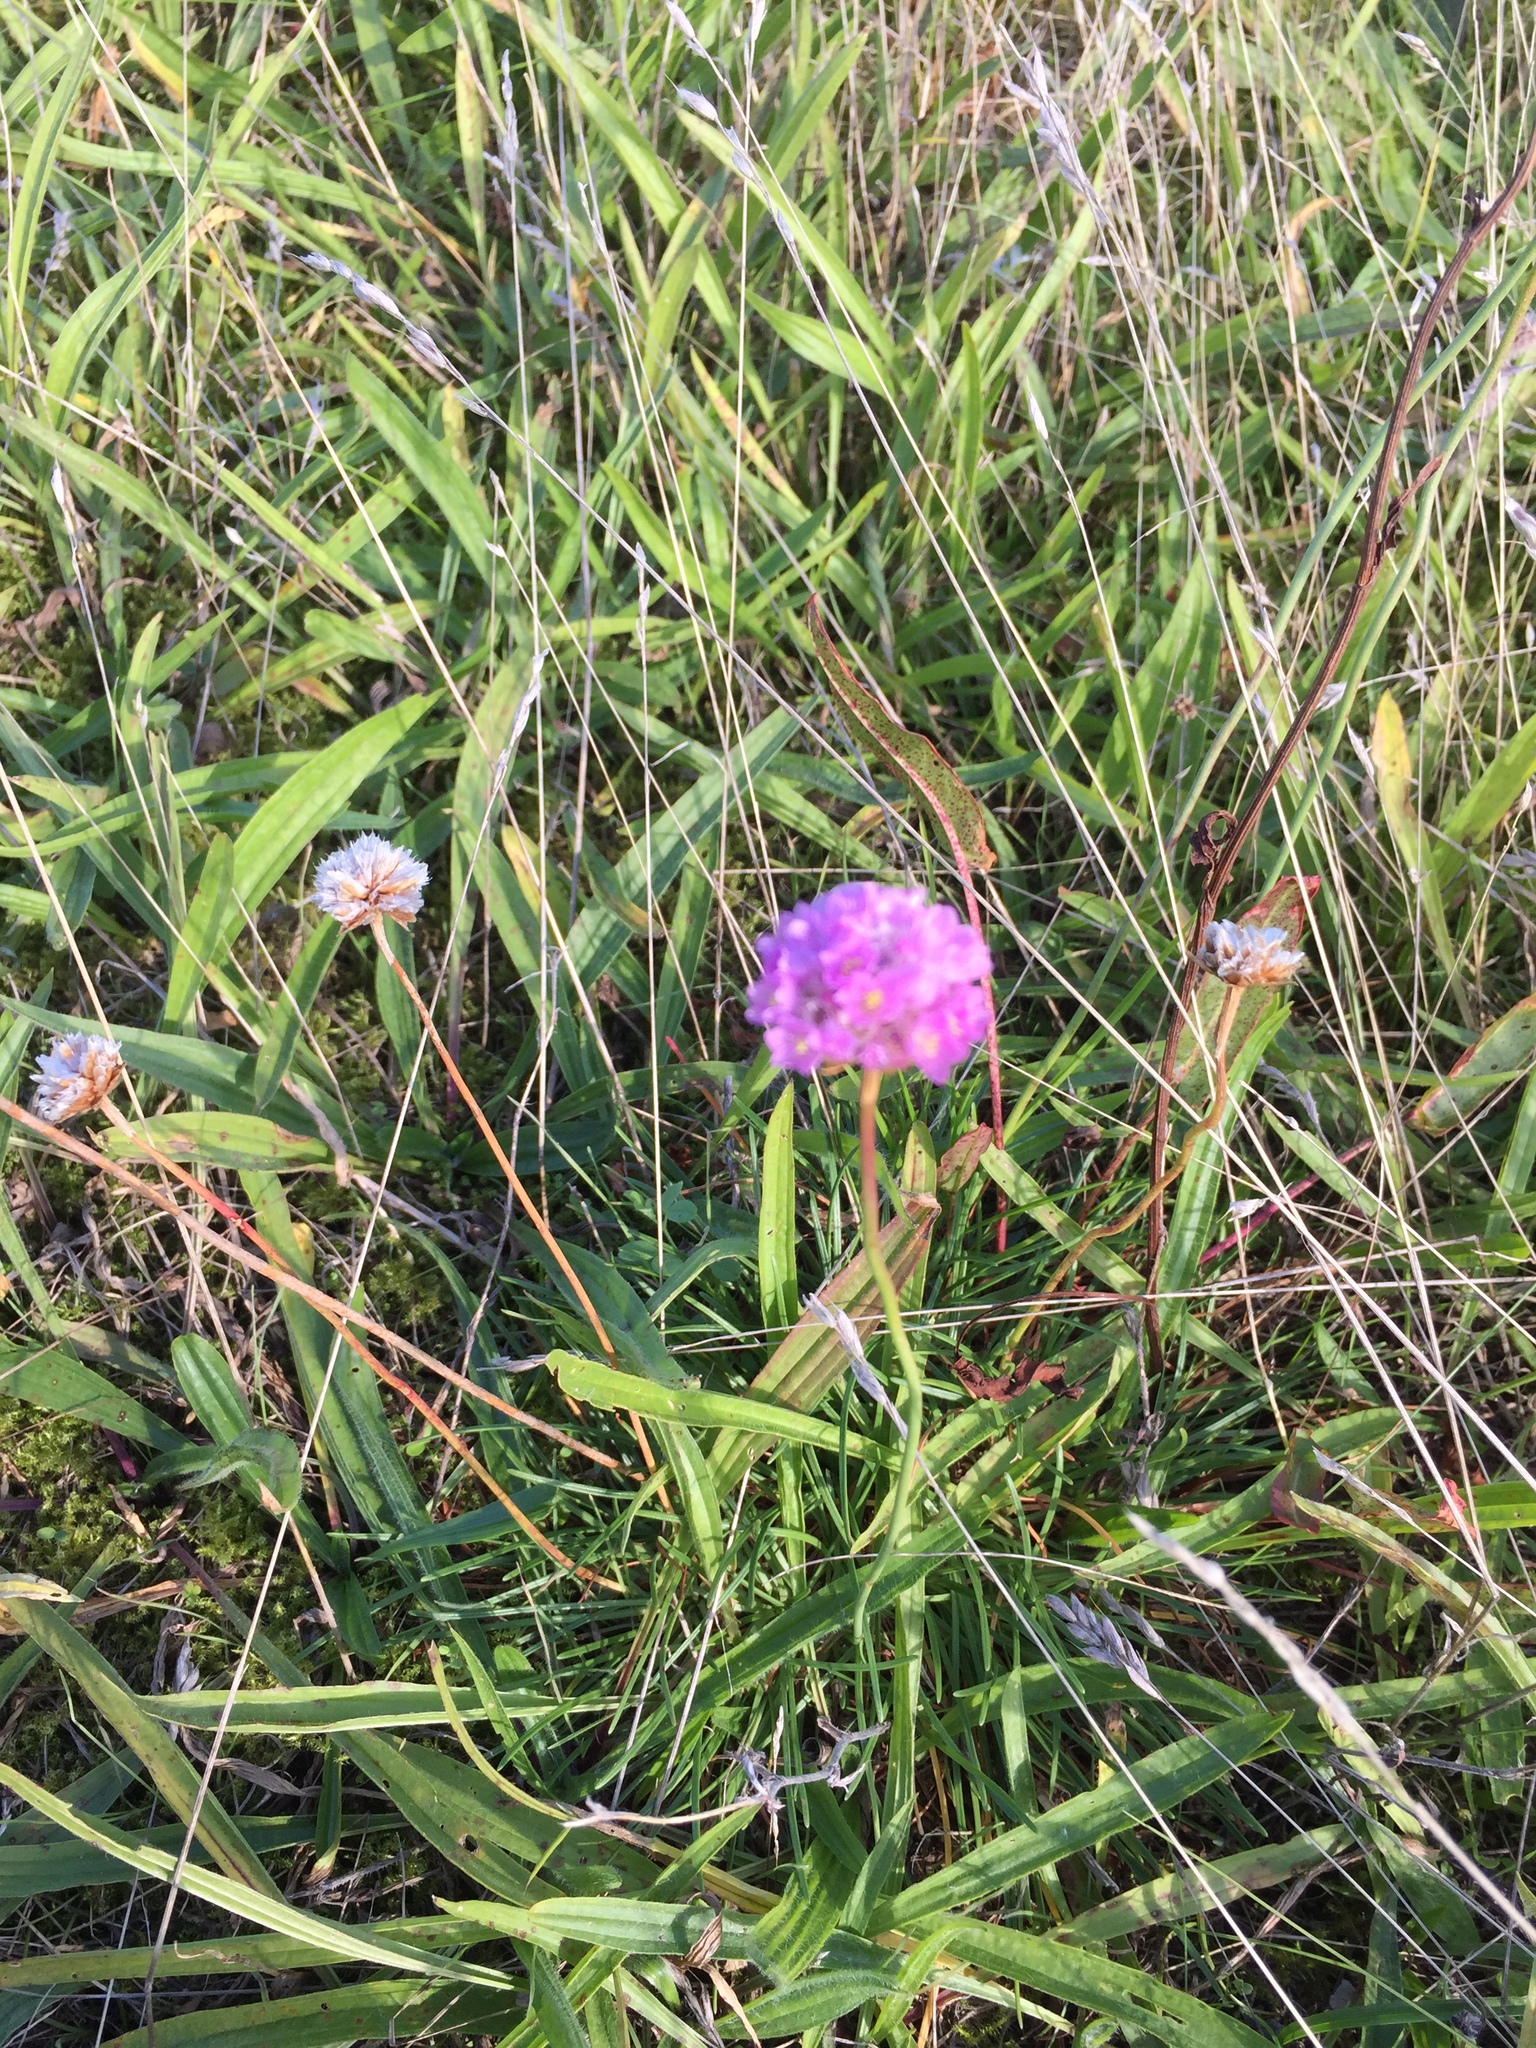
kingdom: Plantae
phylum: Tracheophyta
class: Magnoliopsida
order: Caryophyllales
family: Plumbaginaceae
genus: Armeria
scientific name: Armeria maritima
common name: Thrift
